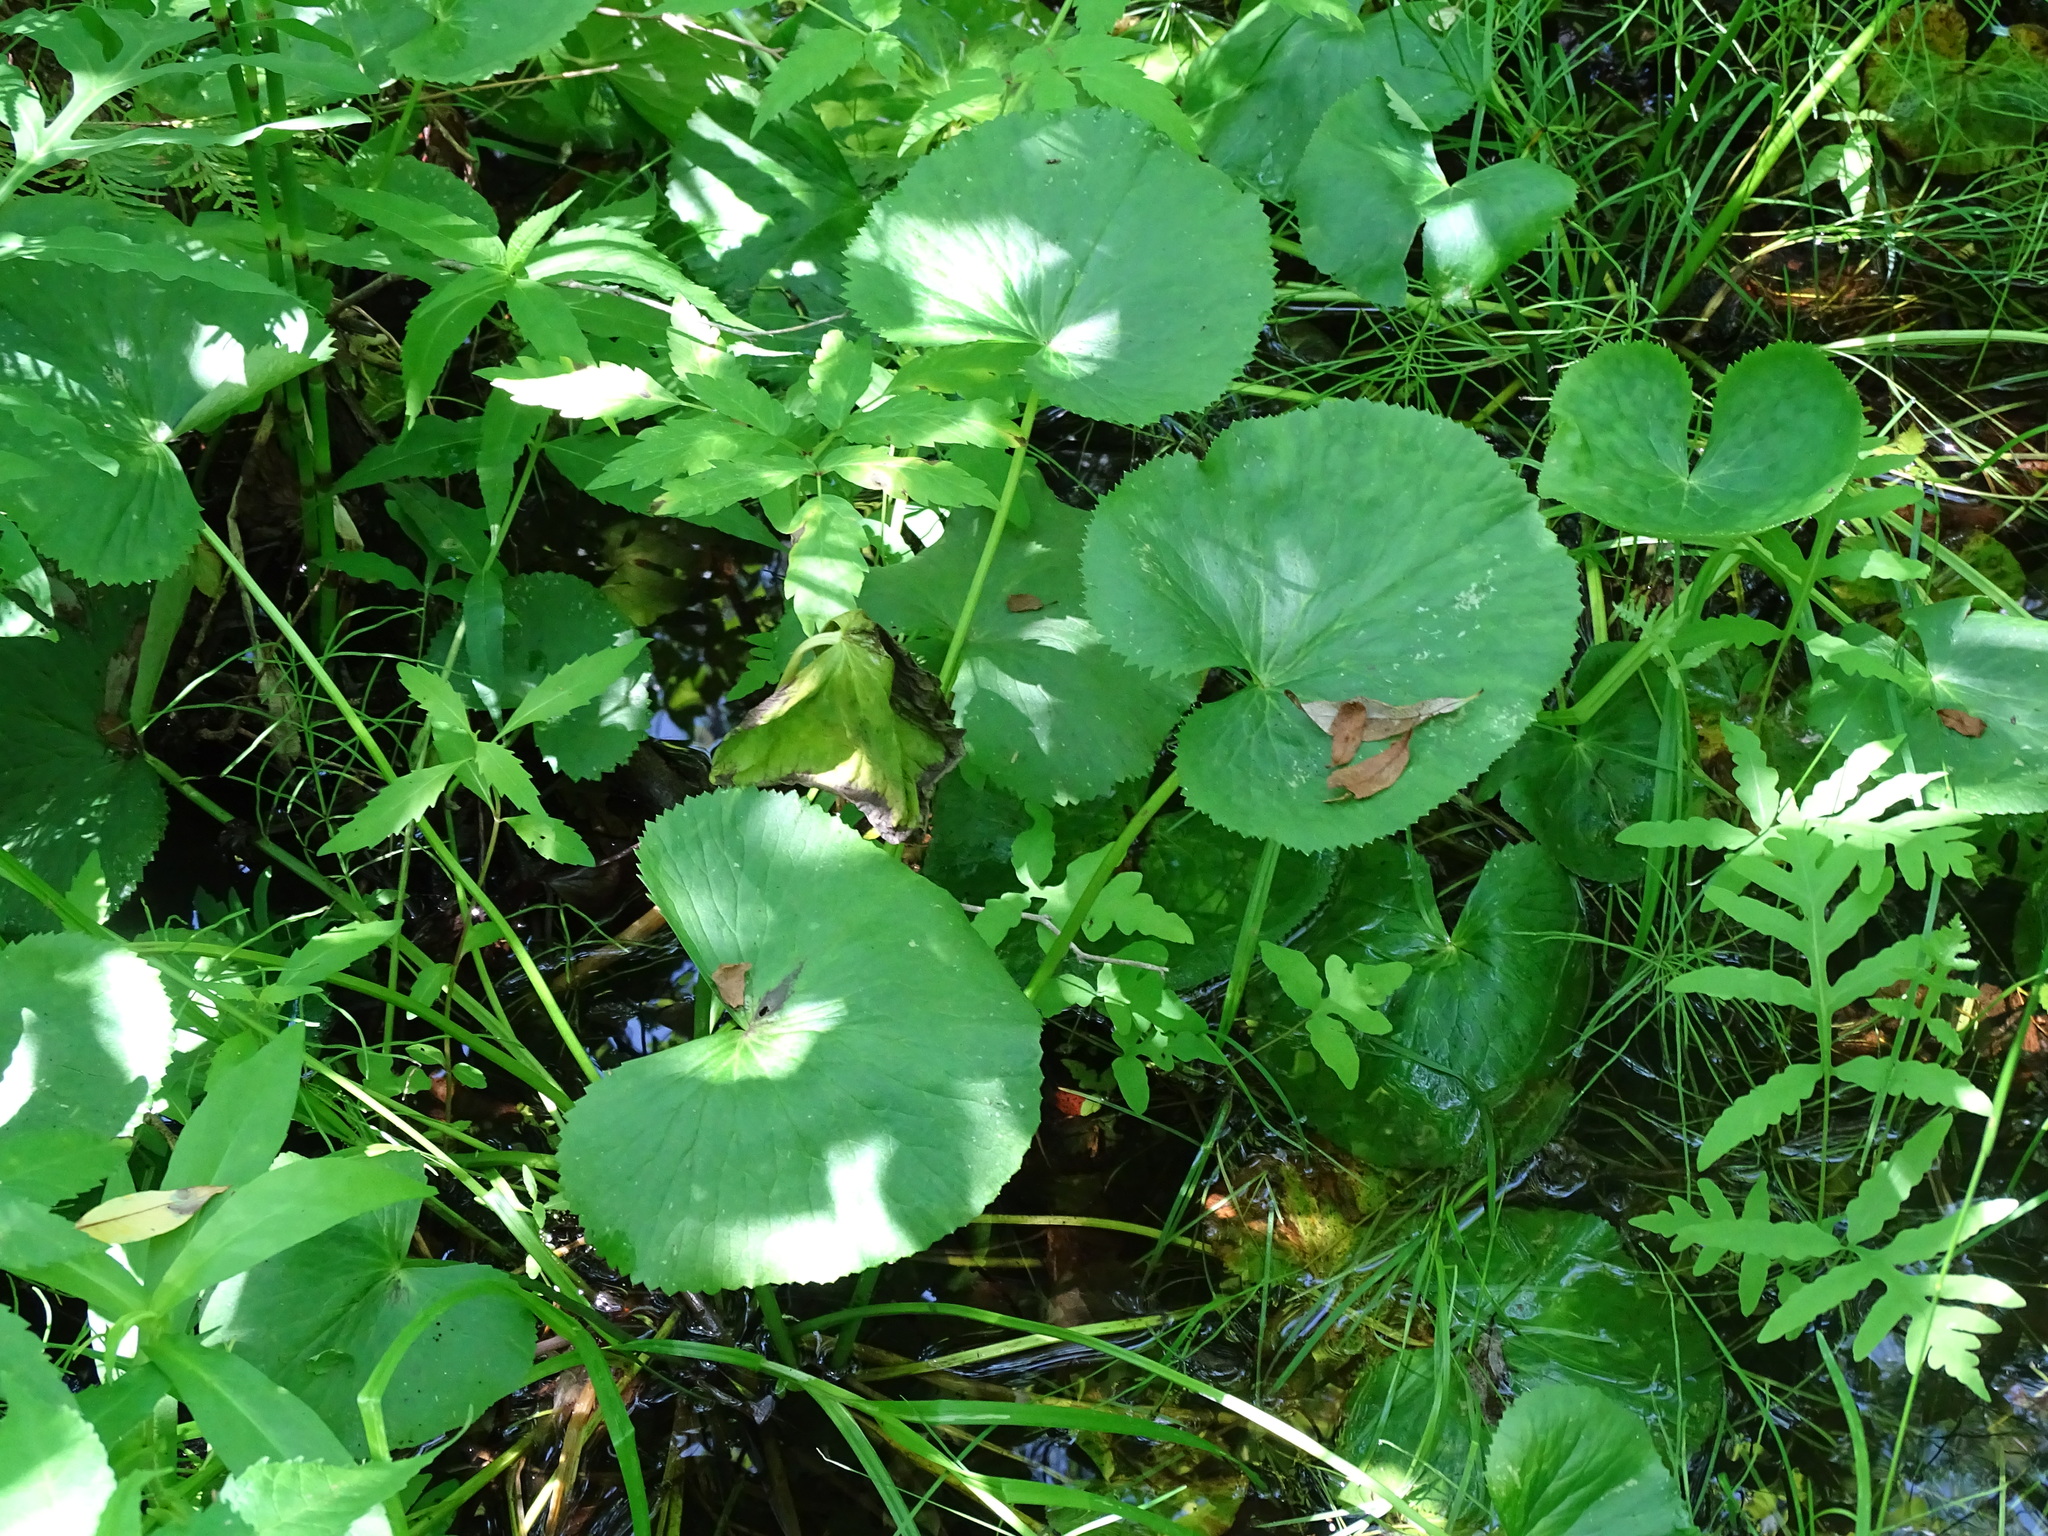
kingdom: Plantae
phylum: Tracheophyta
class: Magnoliopsida
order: Ranunculales
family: Ranunculaceae
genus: Caltha
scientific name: Caltha palustris
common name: Marsh marigold
